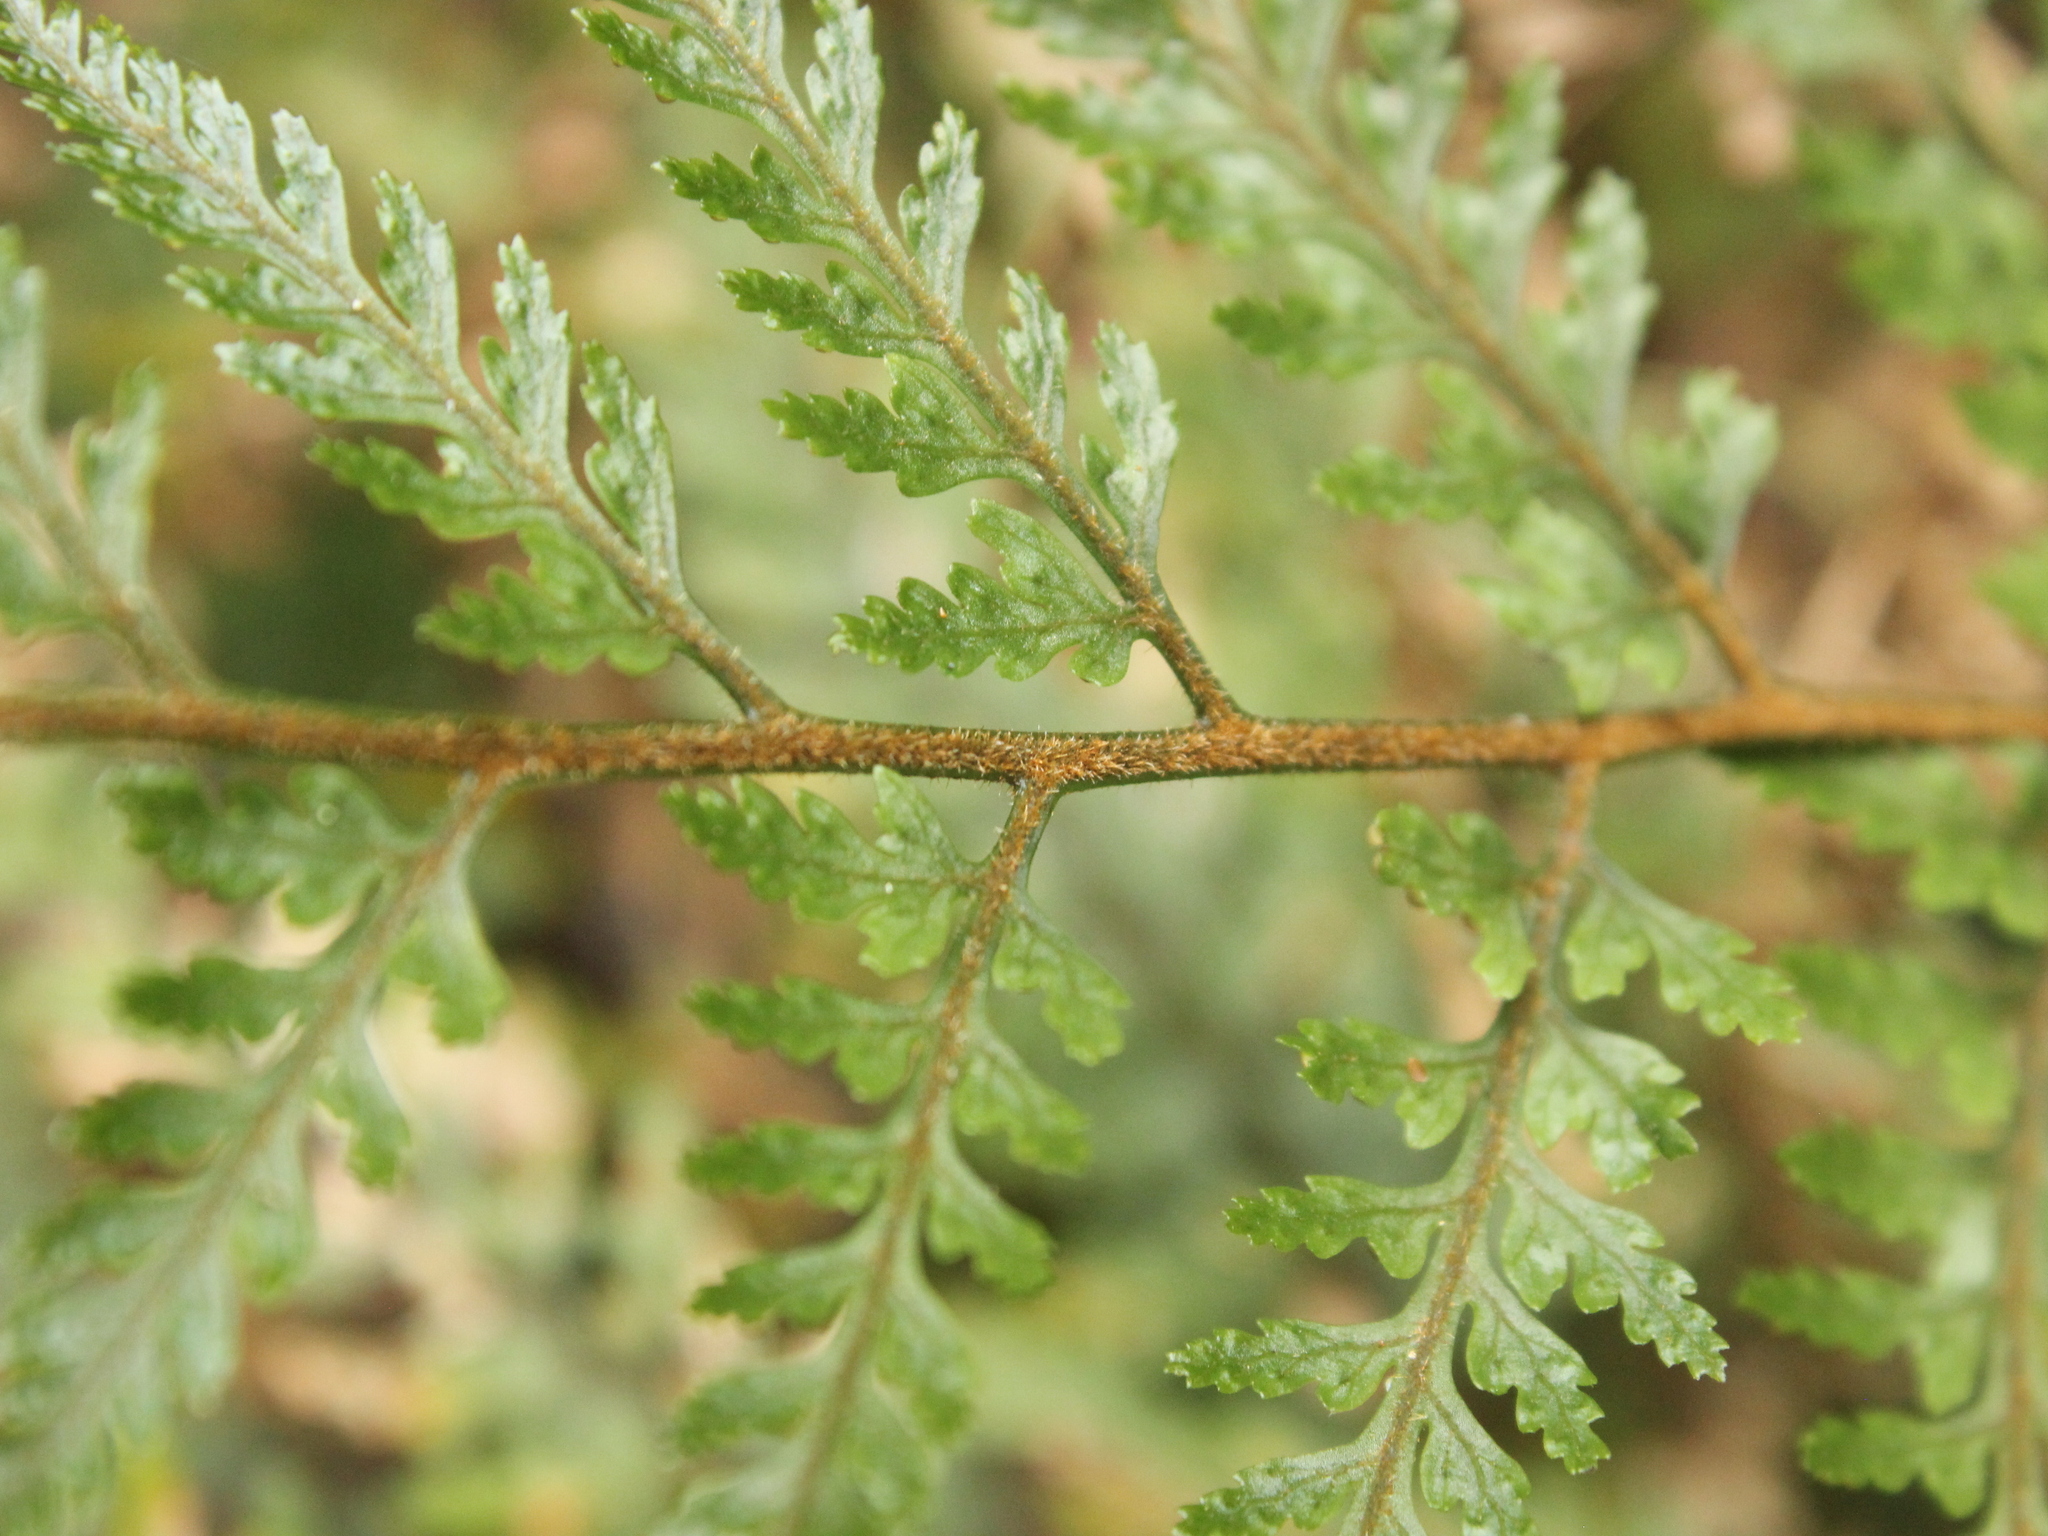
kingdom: Plantae
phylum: Tracheophyta
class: Polypodiopsida
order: Polypodiales
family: Dryopteridaceae
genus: Parapolystichum
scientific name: Parapolystichum microsorum
